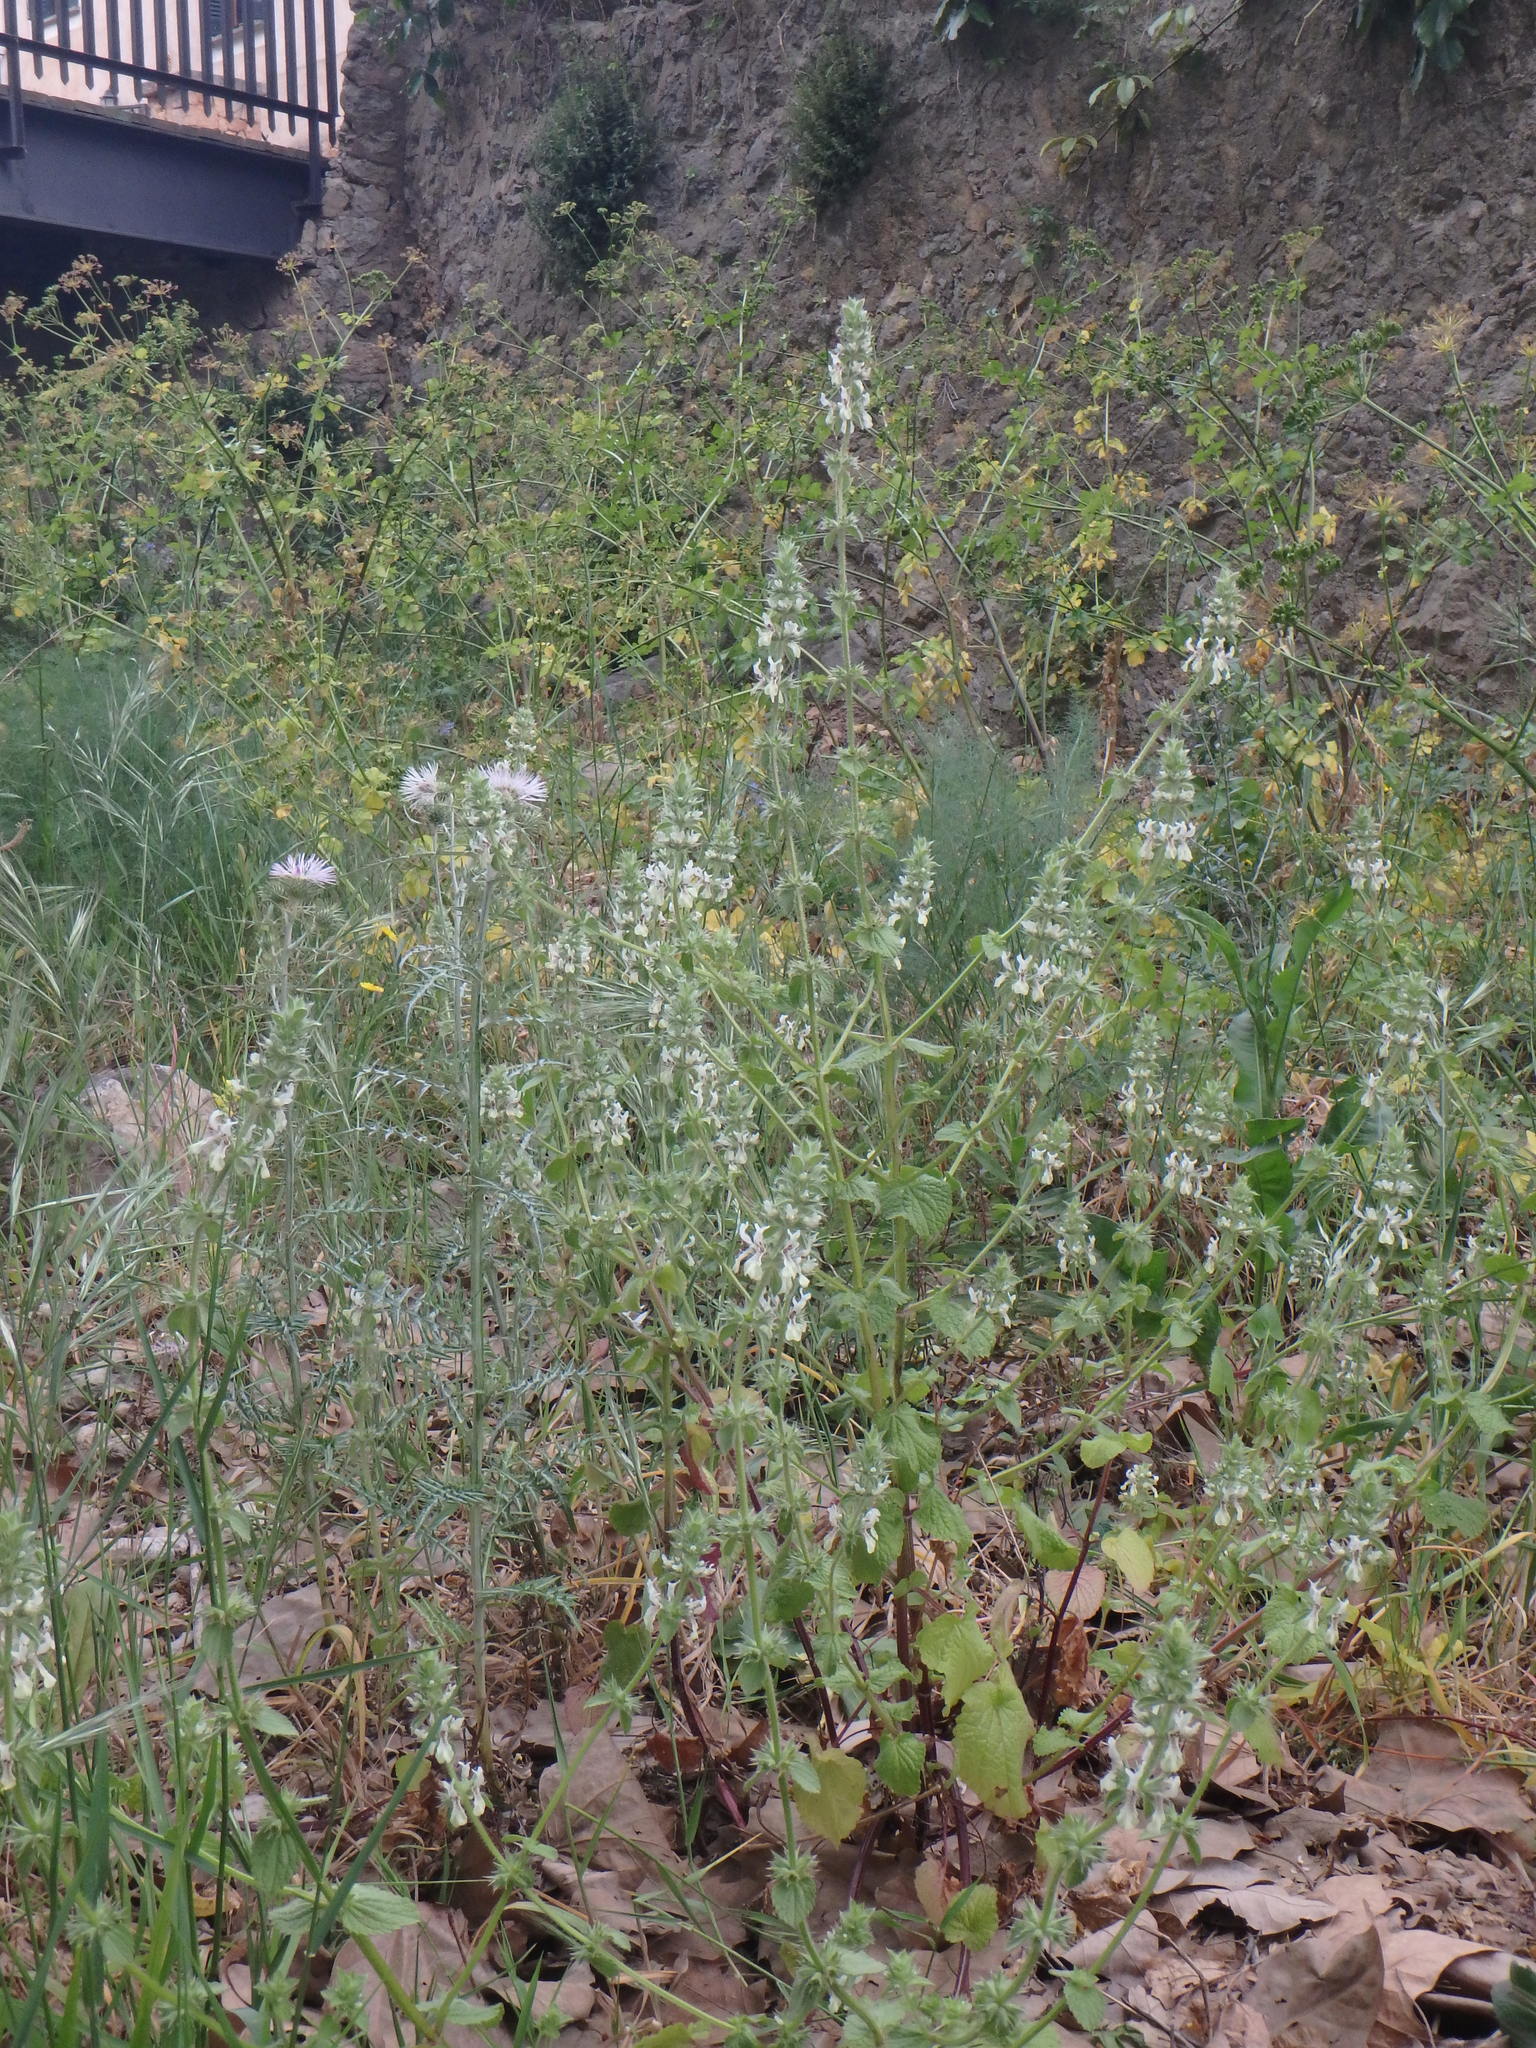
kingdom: Plantae
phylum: Tracheophyta
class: Magnoliopsida
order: Lamiales
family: Lamiaceae
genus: Stachys
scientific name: Stachys ocymastrum
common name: Italian hedgenettle
